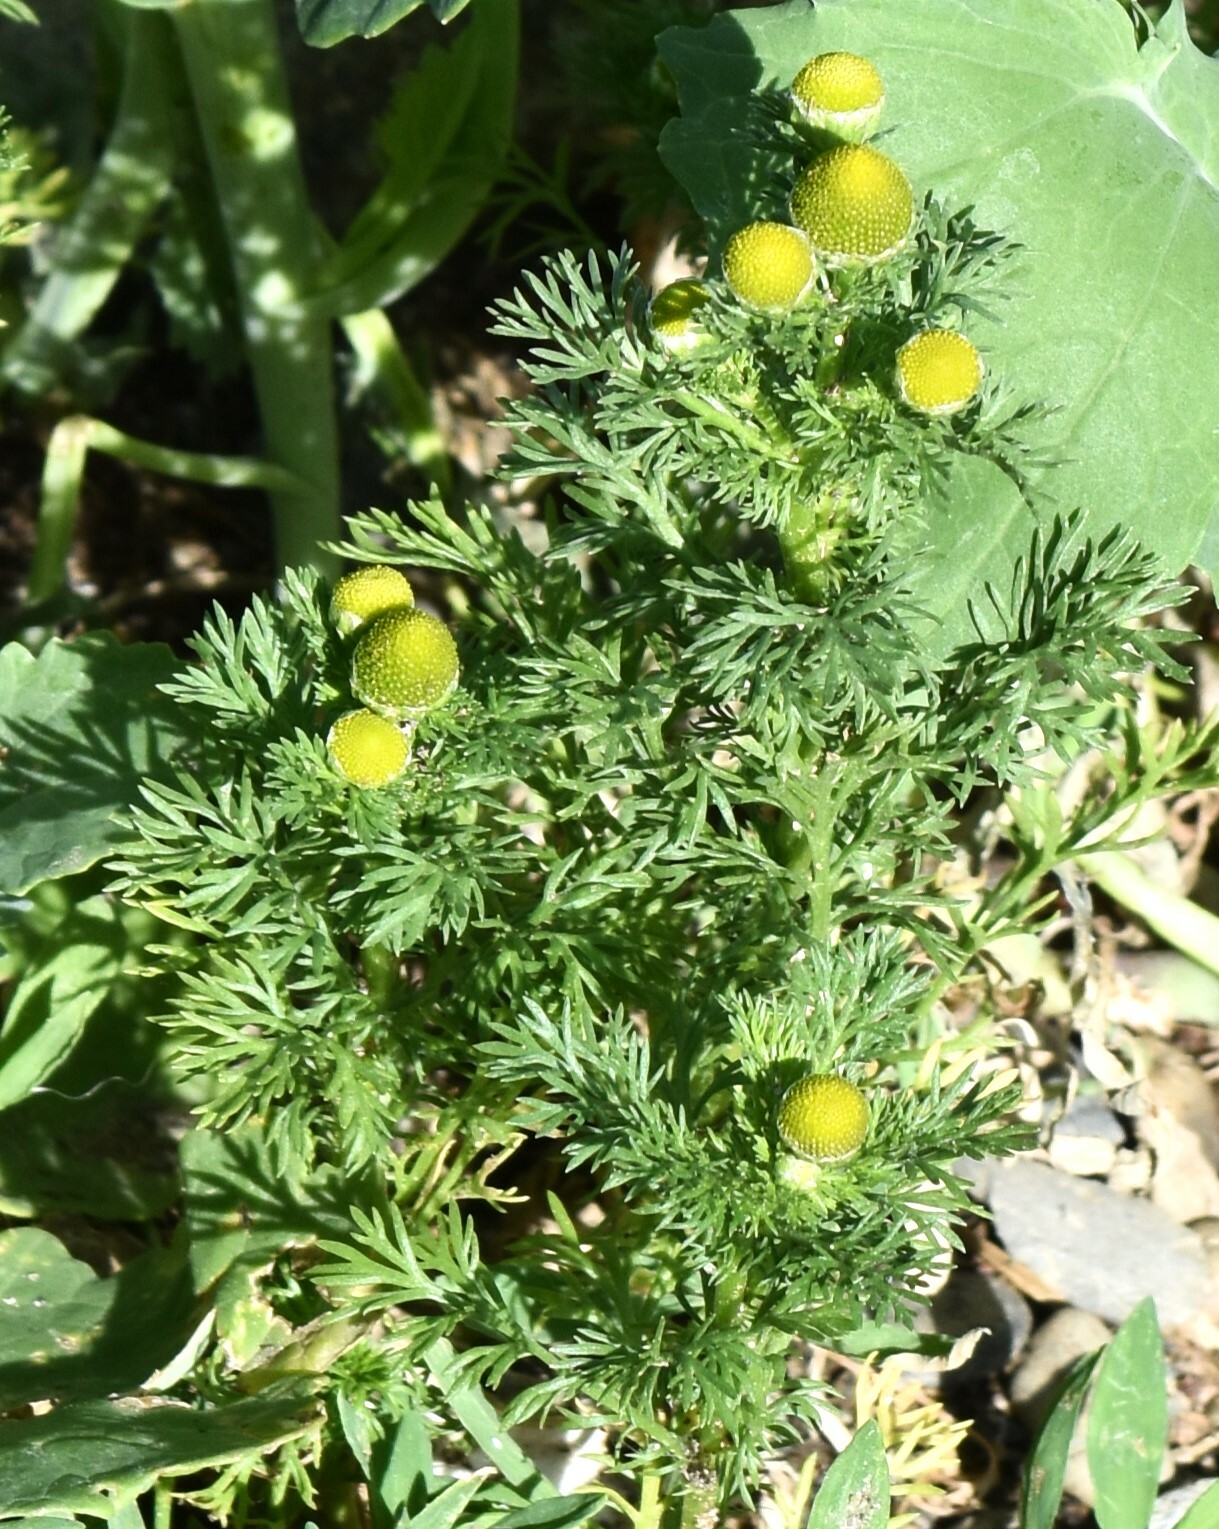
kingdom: Plantae
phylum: Tracheophyta
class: Magnoliopsida
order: Asterales
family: Asteraceae
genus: Matricaria
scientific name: Matricaria discoidea
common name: Disc mayweed
